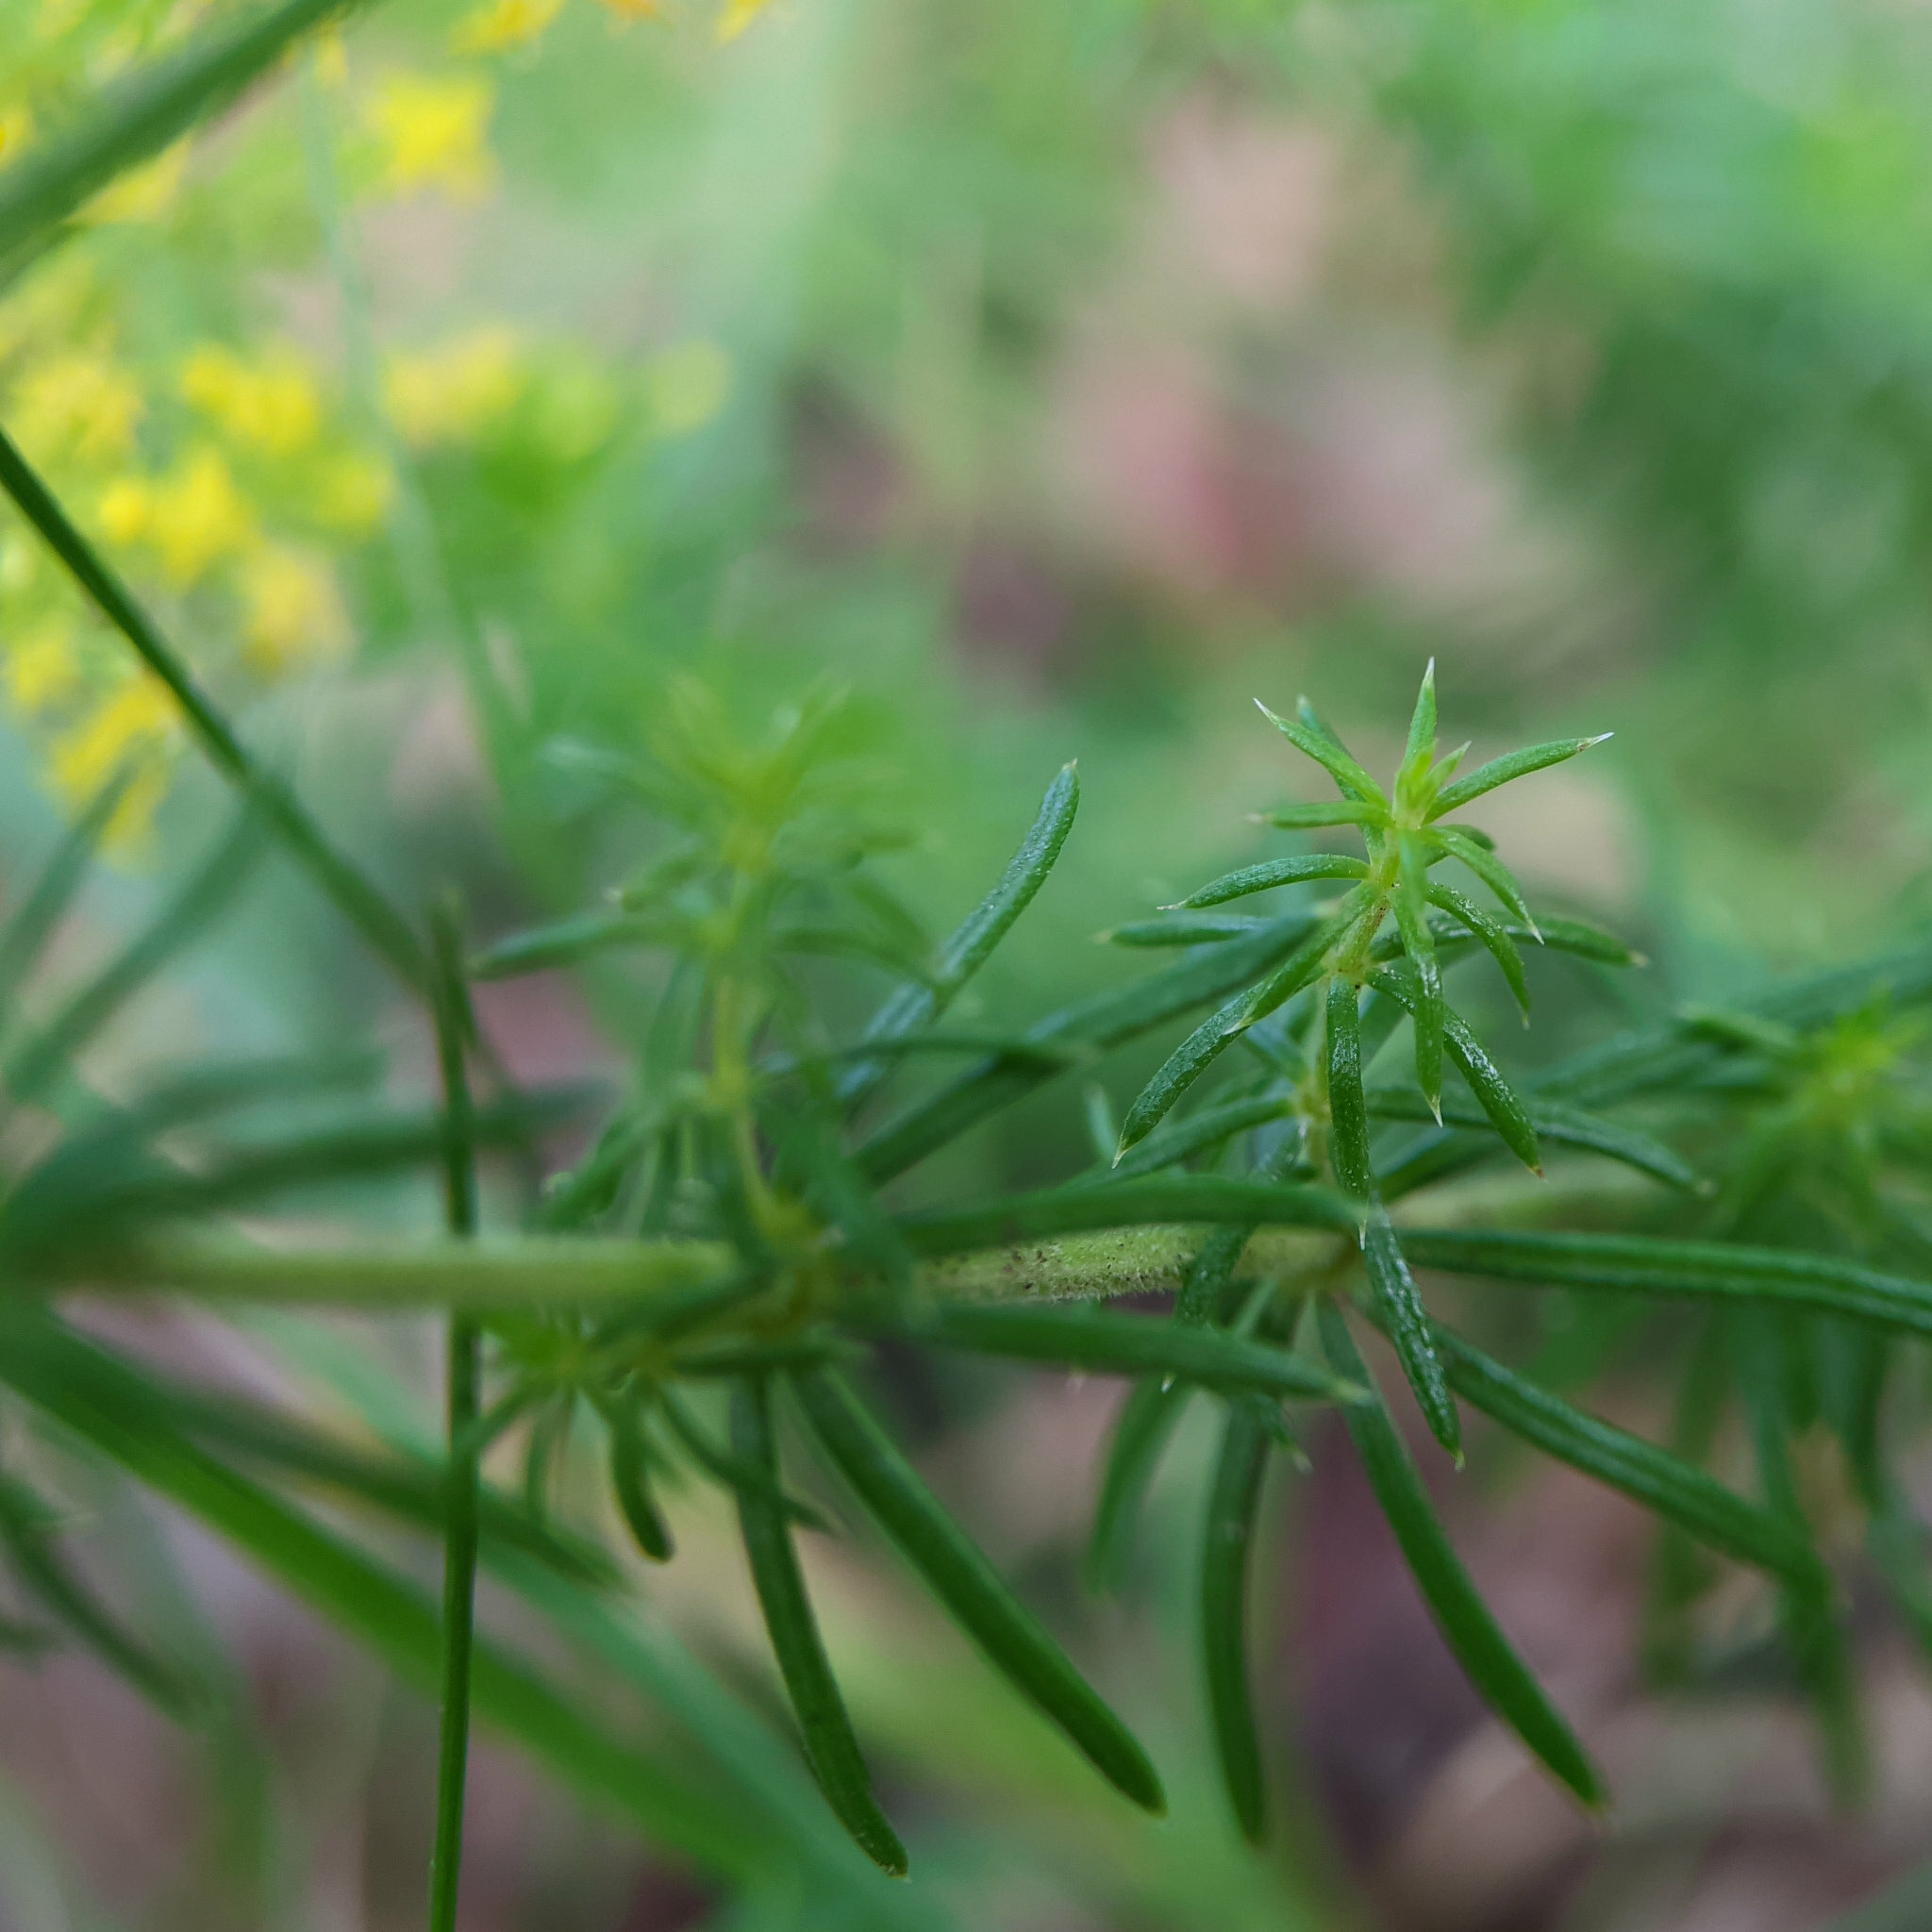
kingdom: Plantae
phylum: Tracheophyta
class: Magnoliopsida
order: Gentianales
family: Rubiaceae
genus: Galium
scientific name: Galium verum
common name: Lady's bedstraw
